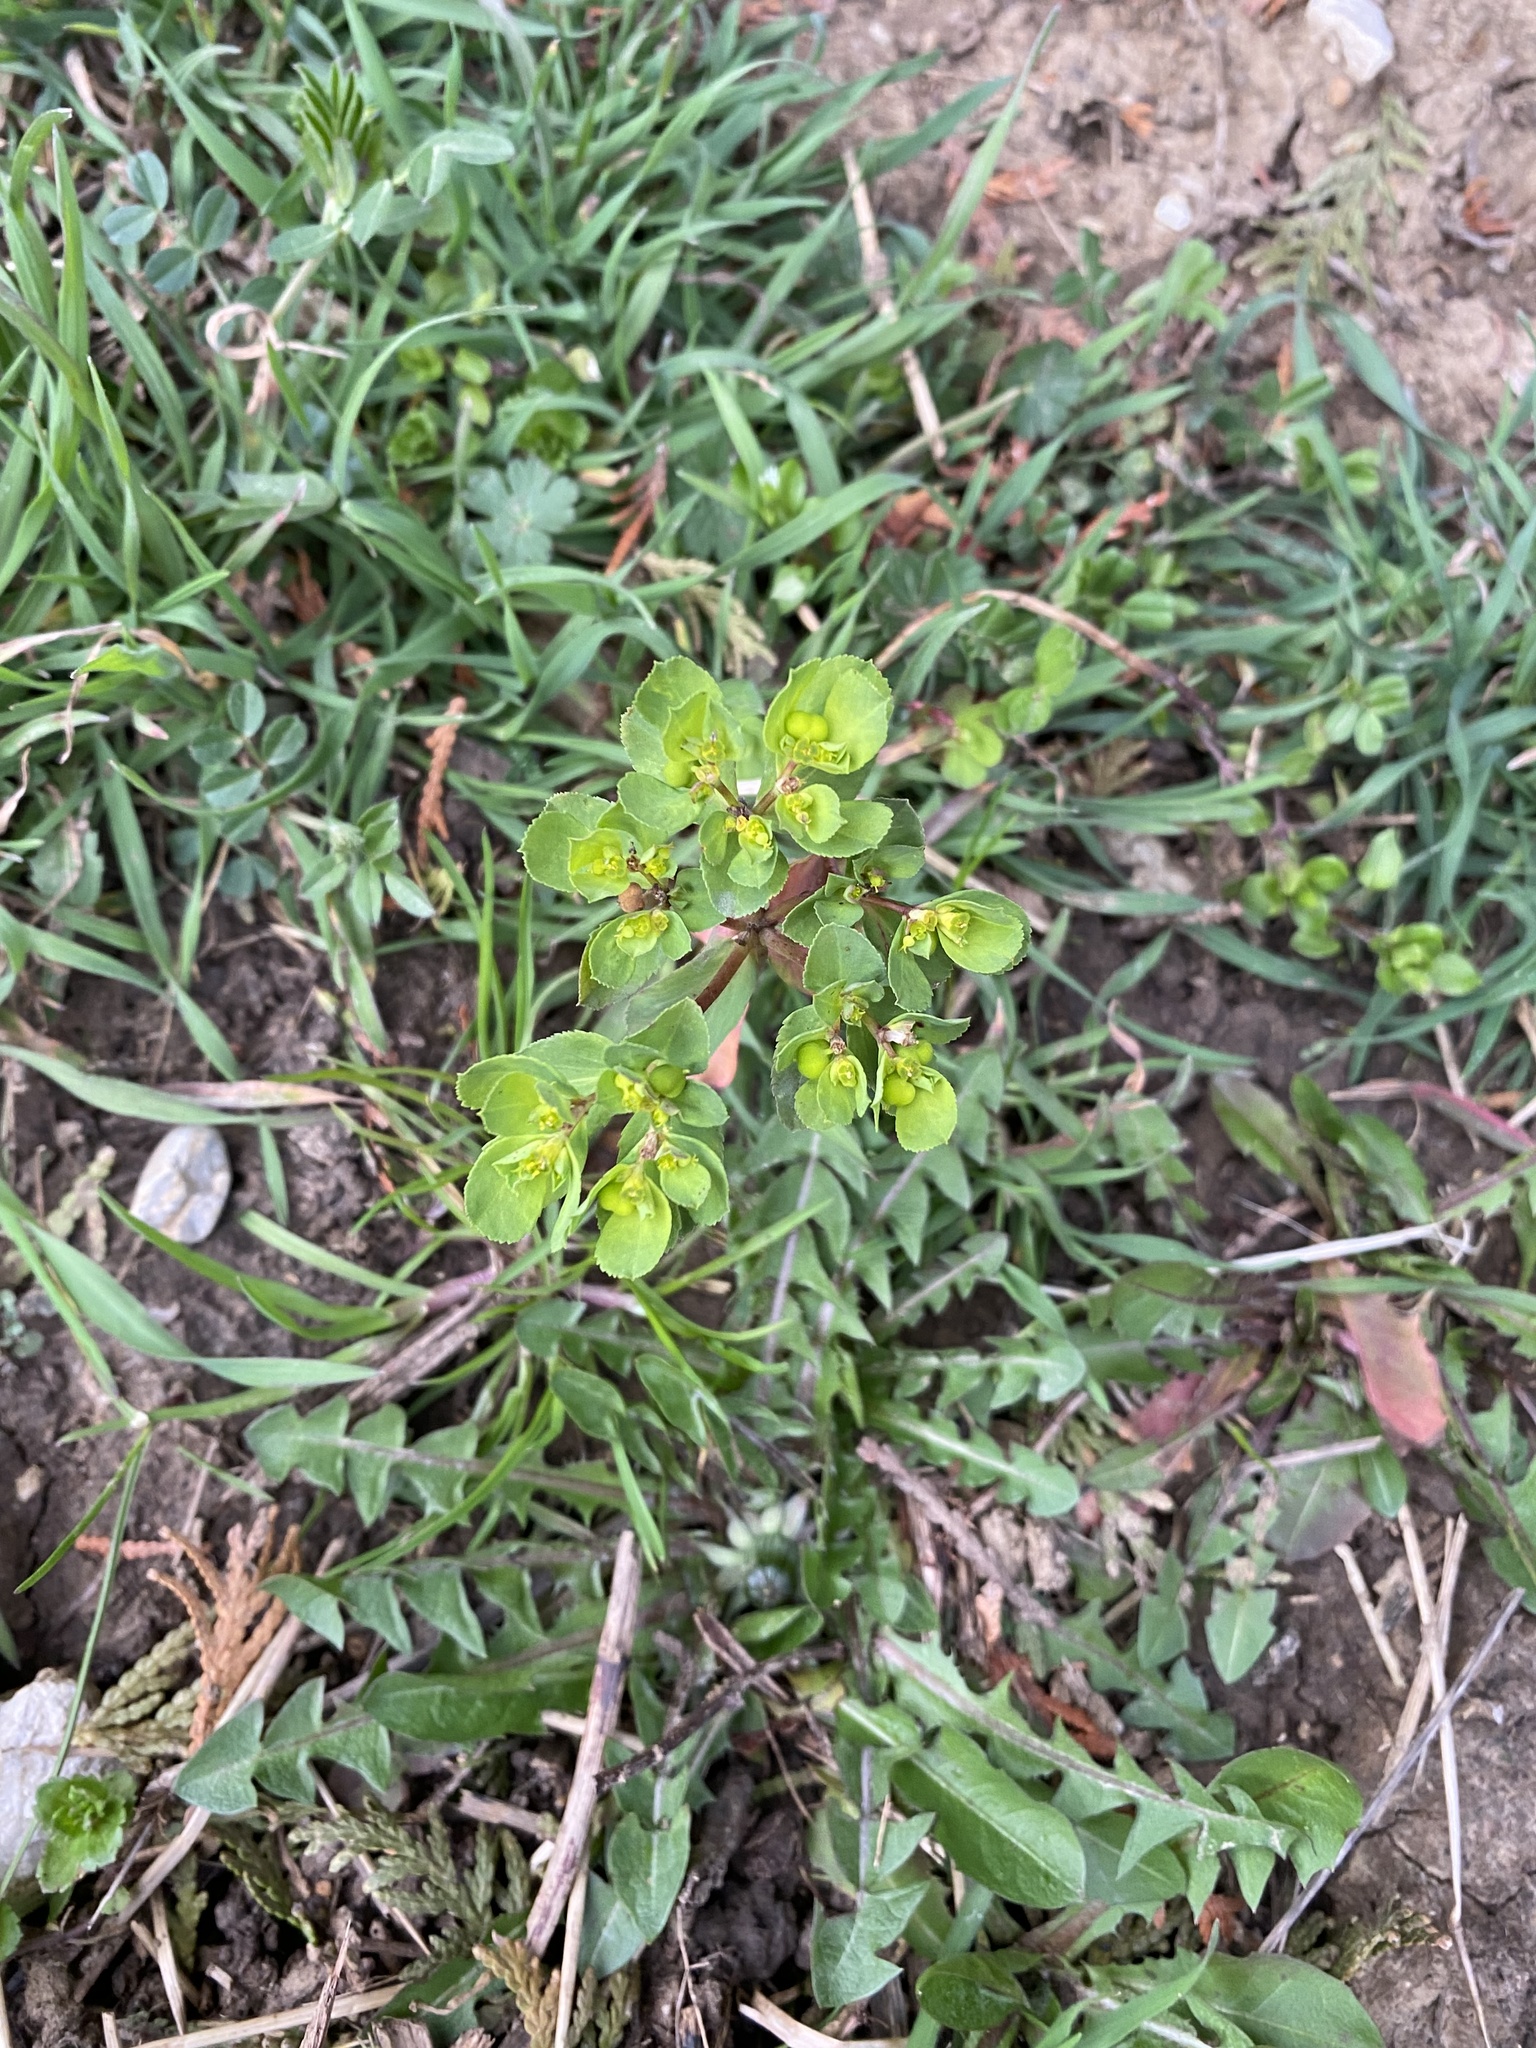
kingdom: Plantae
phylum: Tracheophyta
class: Magnoliopsida
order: Malpighiales
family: Euphorbiaceae
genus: Euphorbia
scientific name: Euphorbia helioscopia
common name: Sun spurge
